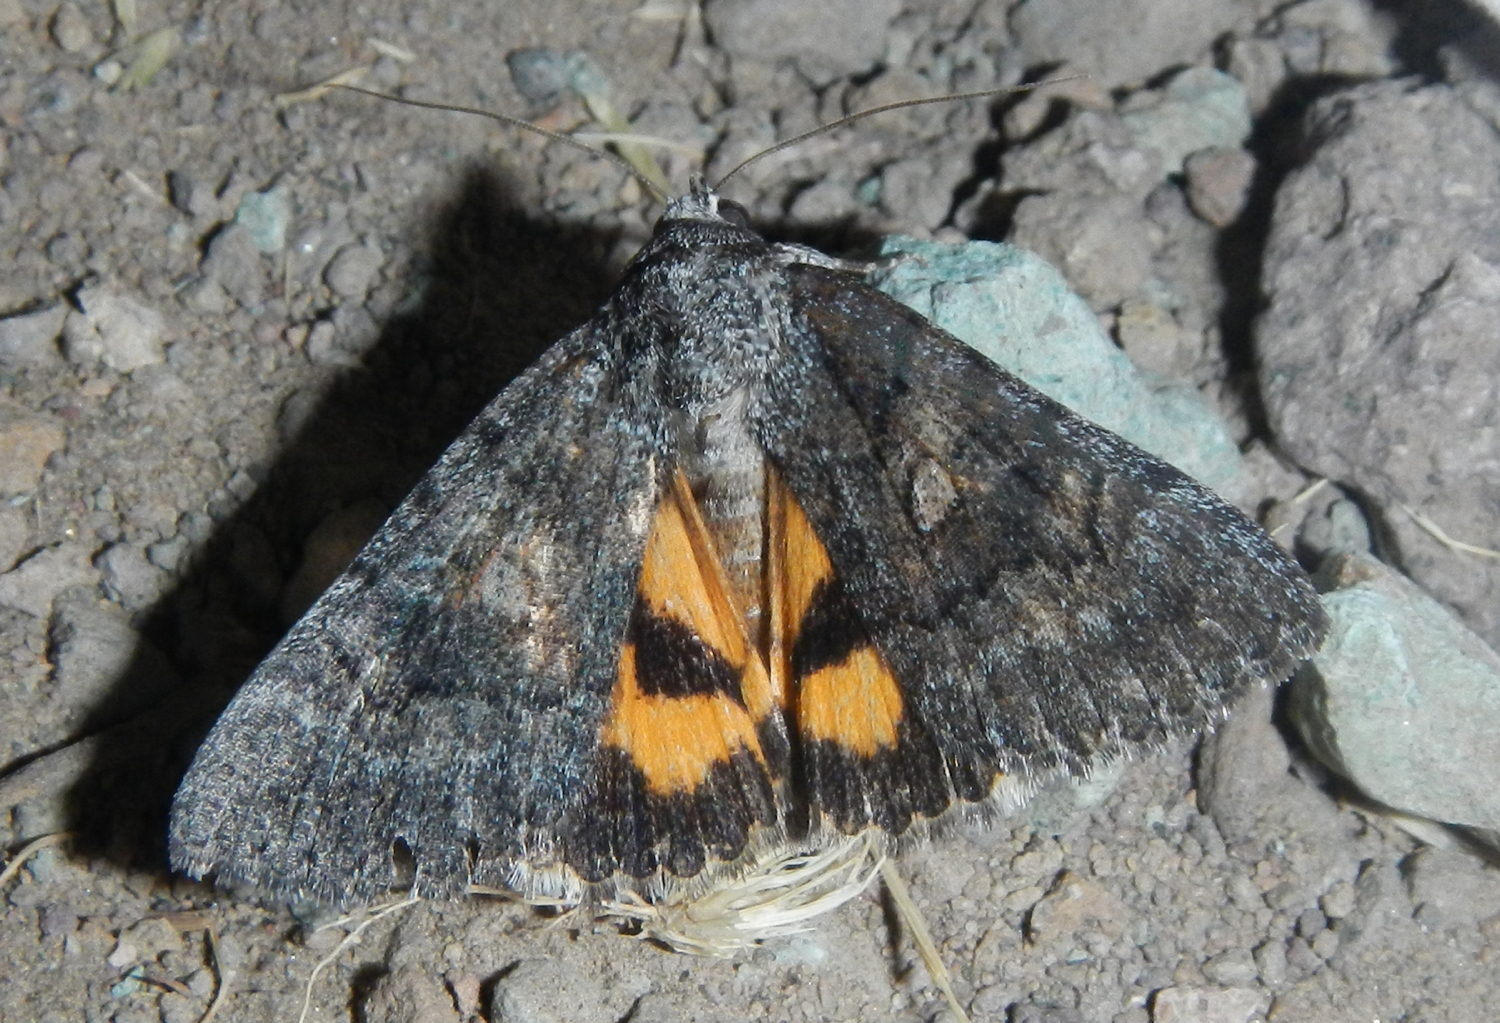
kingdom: Animalia
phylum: Arthropoda
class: Insecta
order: Lepidoptera
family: Erebidae
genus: Catocala
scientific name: Catocala chelidonia
